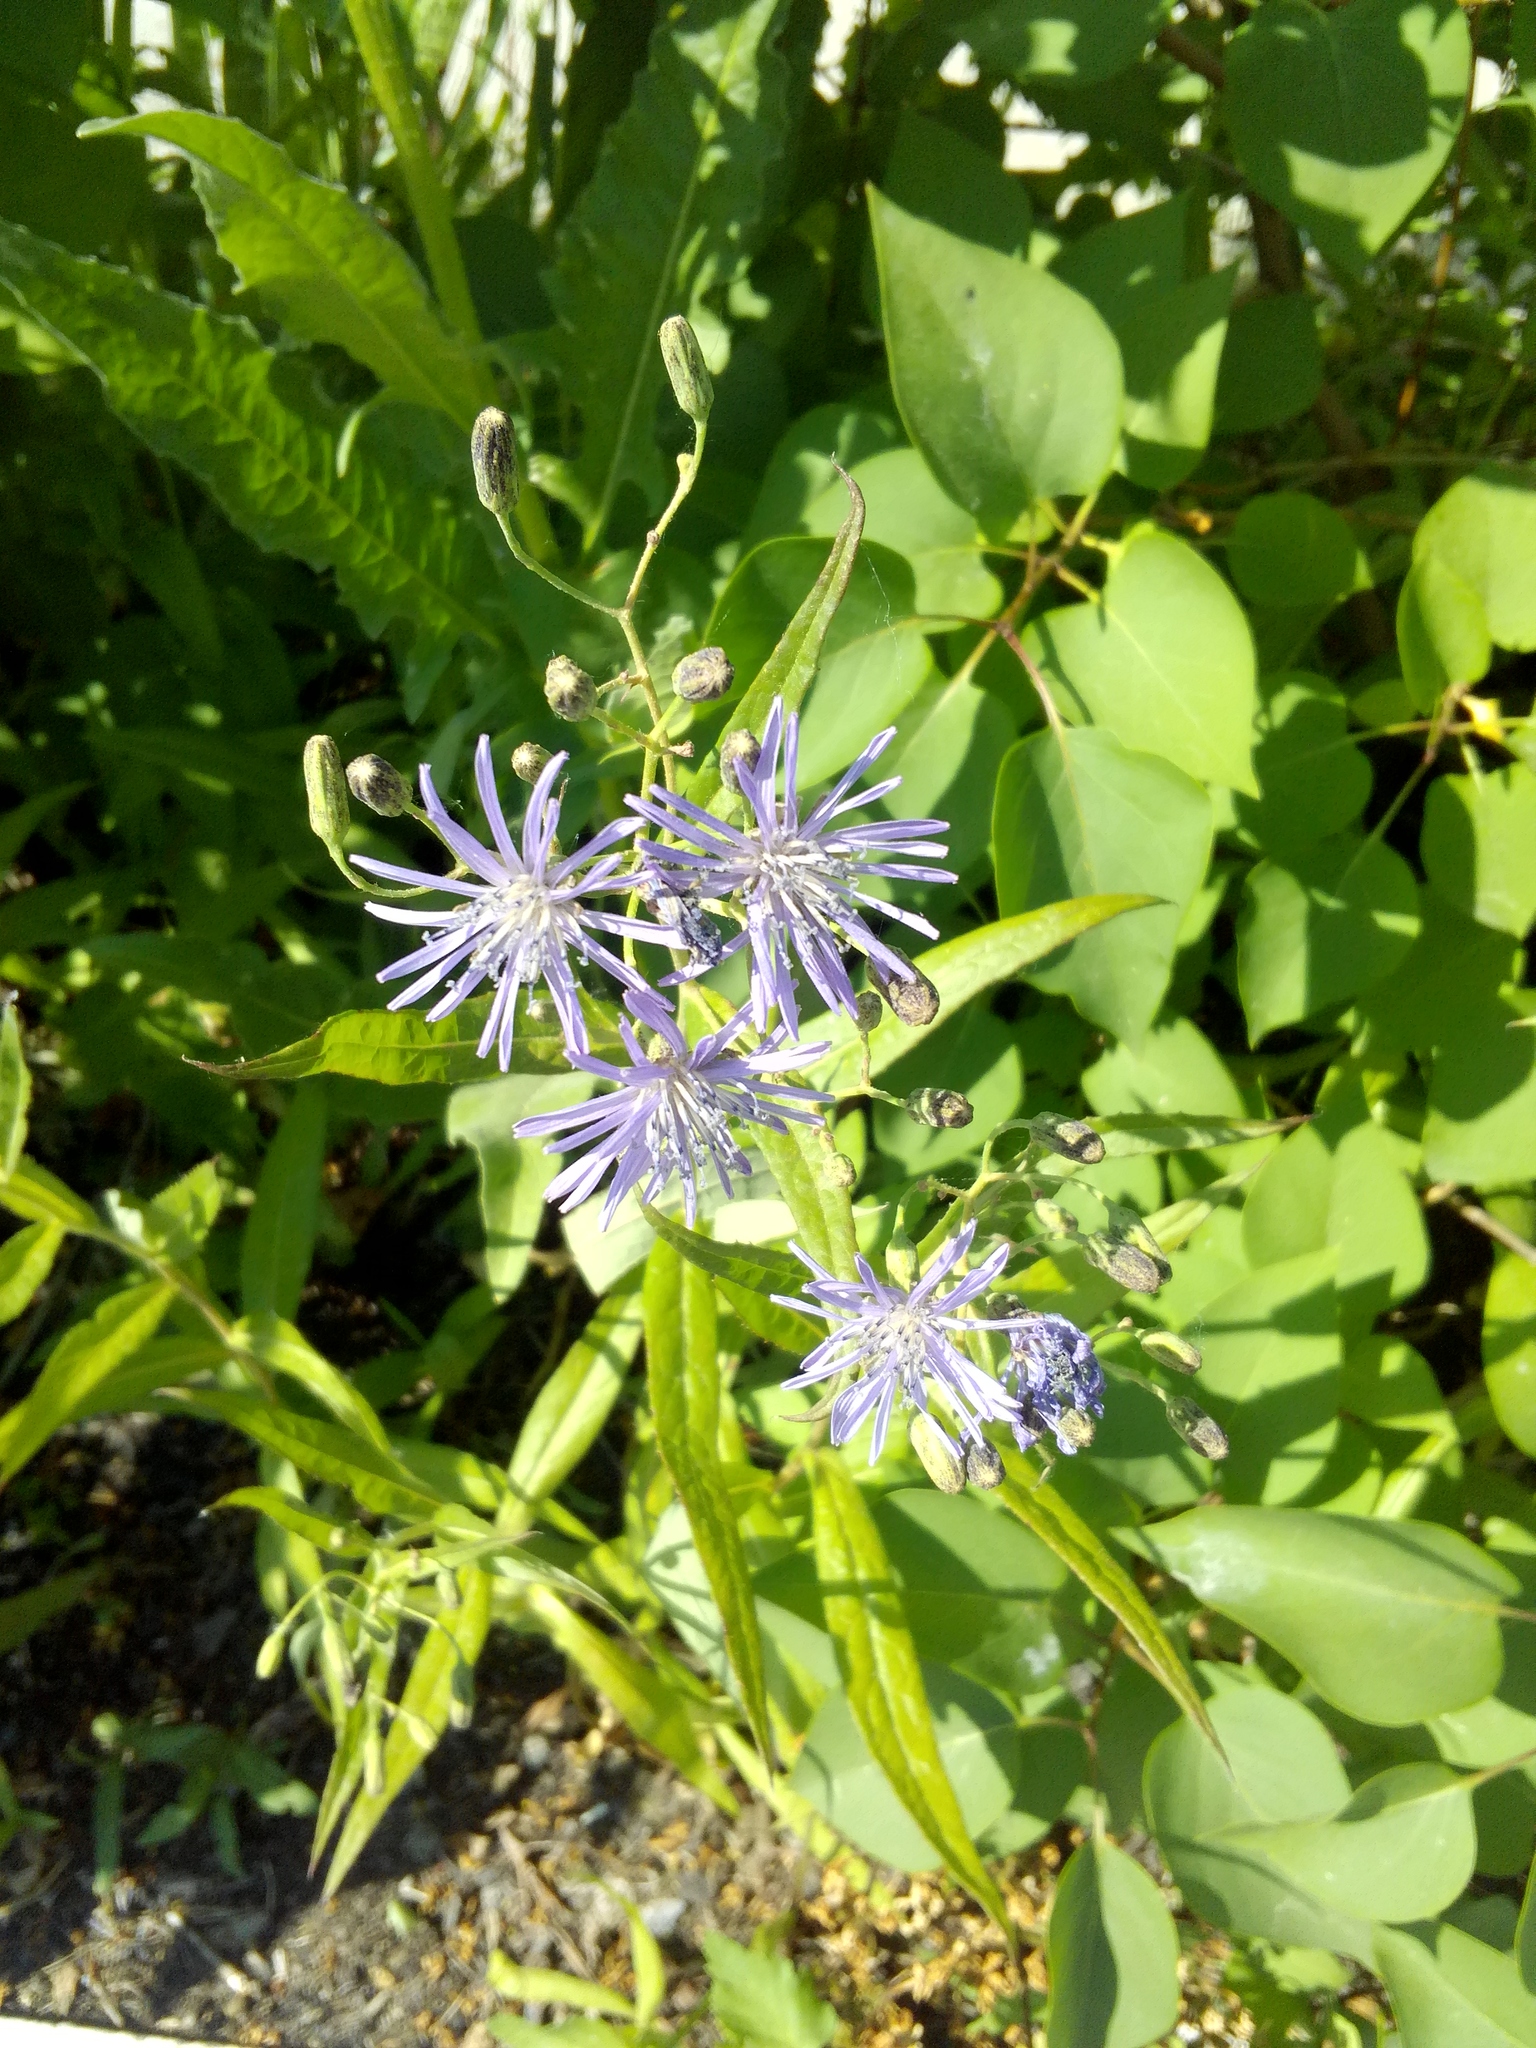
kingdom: Plantae
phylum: Tracheophyta
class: Magnoliopsida
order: Asterales
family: Asteraceae
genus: Lactuca
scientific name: Lactuca sibirica
